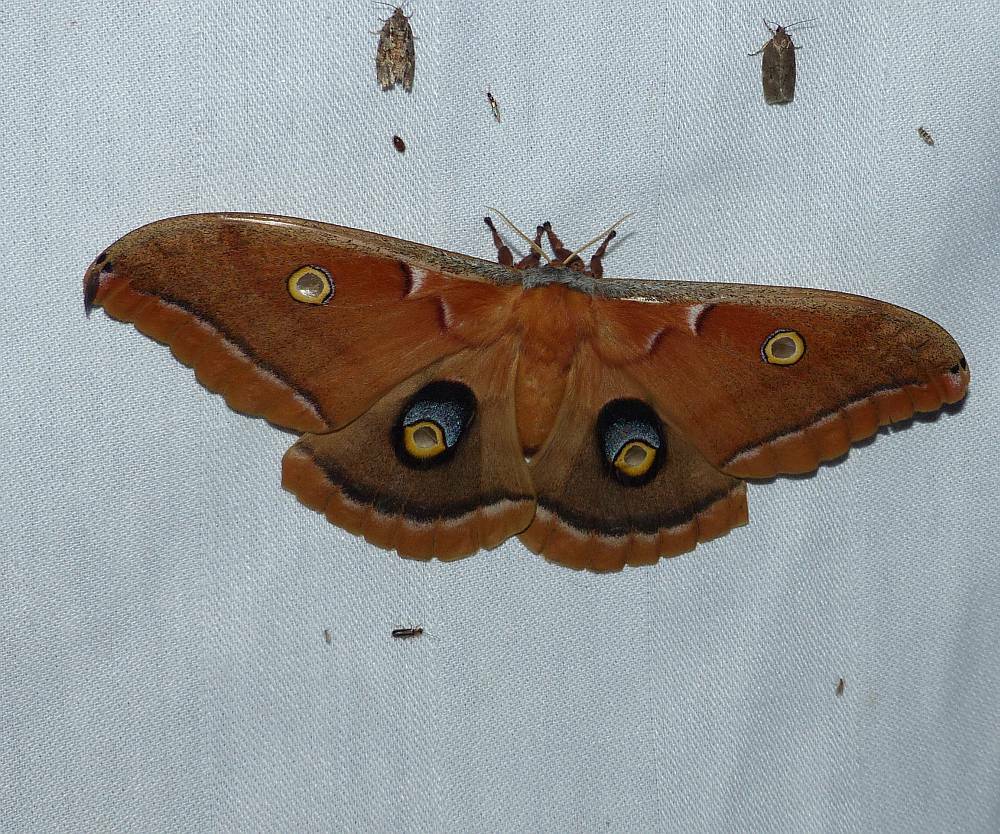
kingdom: Animalia
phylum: Arthropoda
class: Insecta
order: Lepidoptera
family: Saturniidae
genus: Antheraea
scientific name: Antheraea polyphemus
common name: Polyphemus moth
